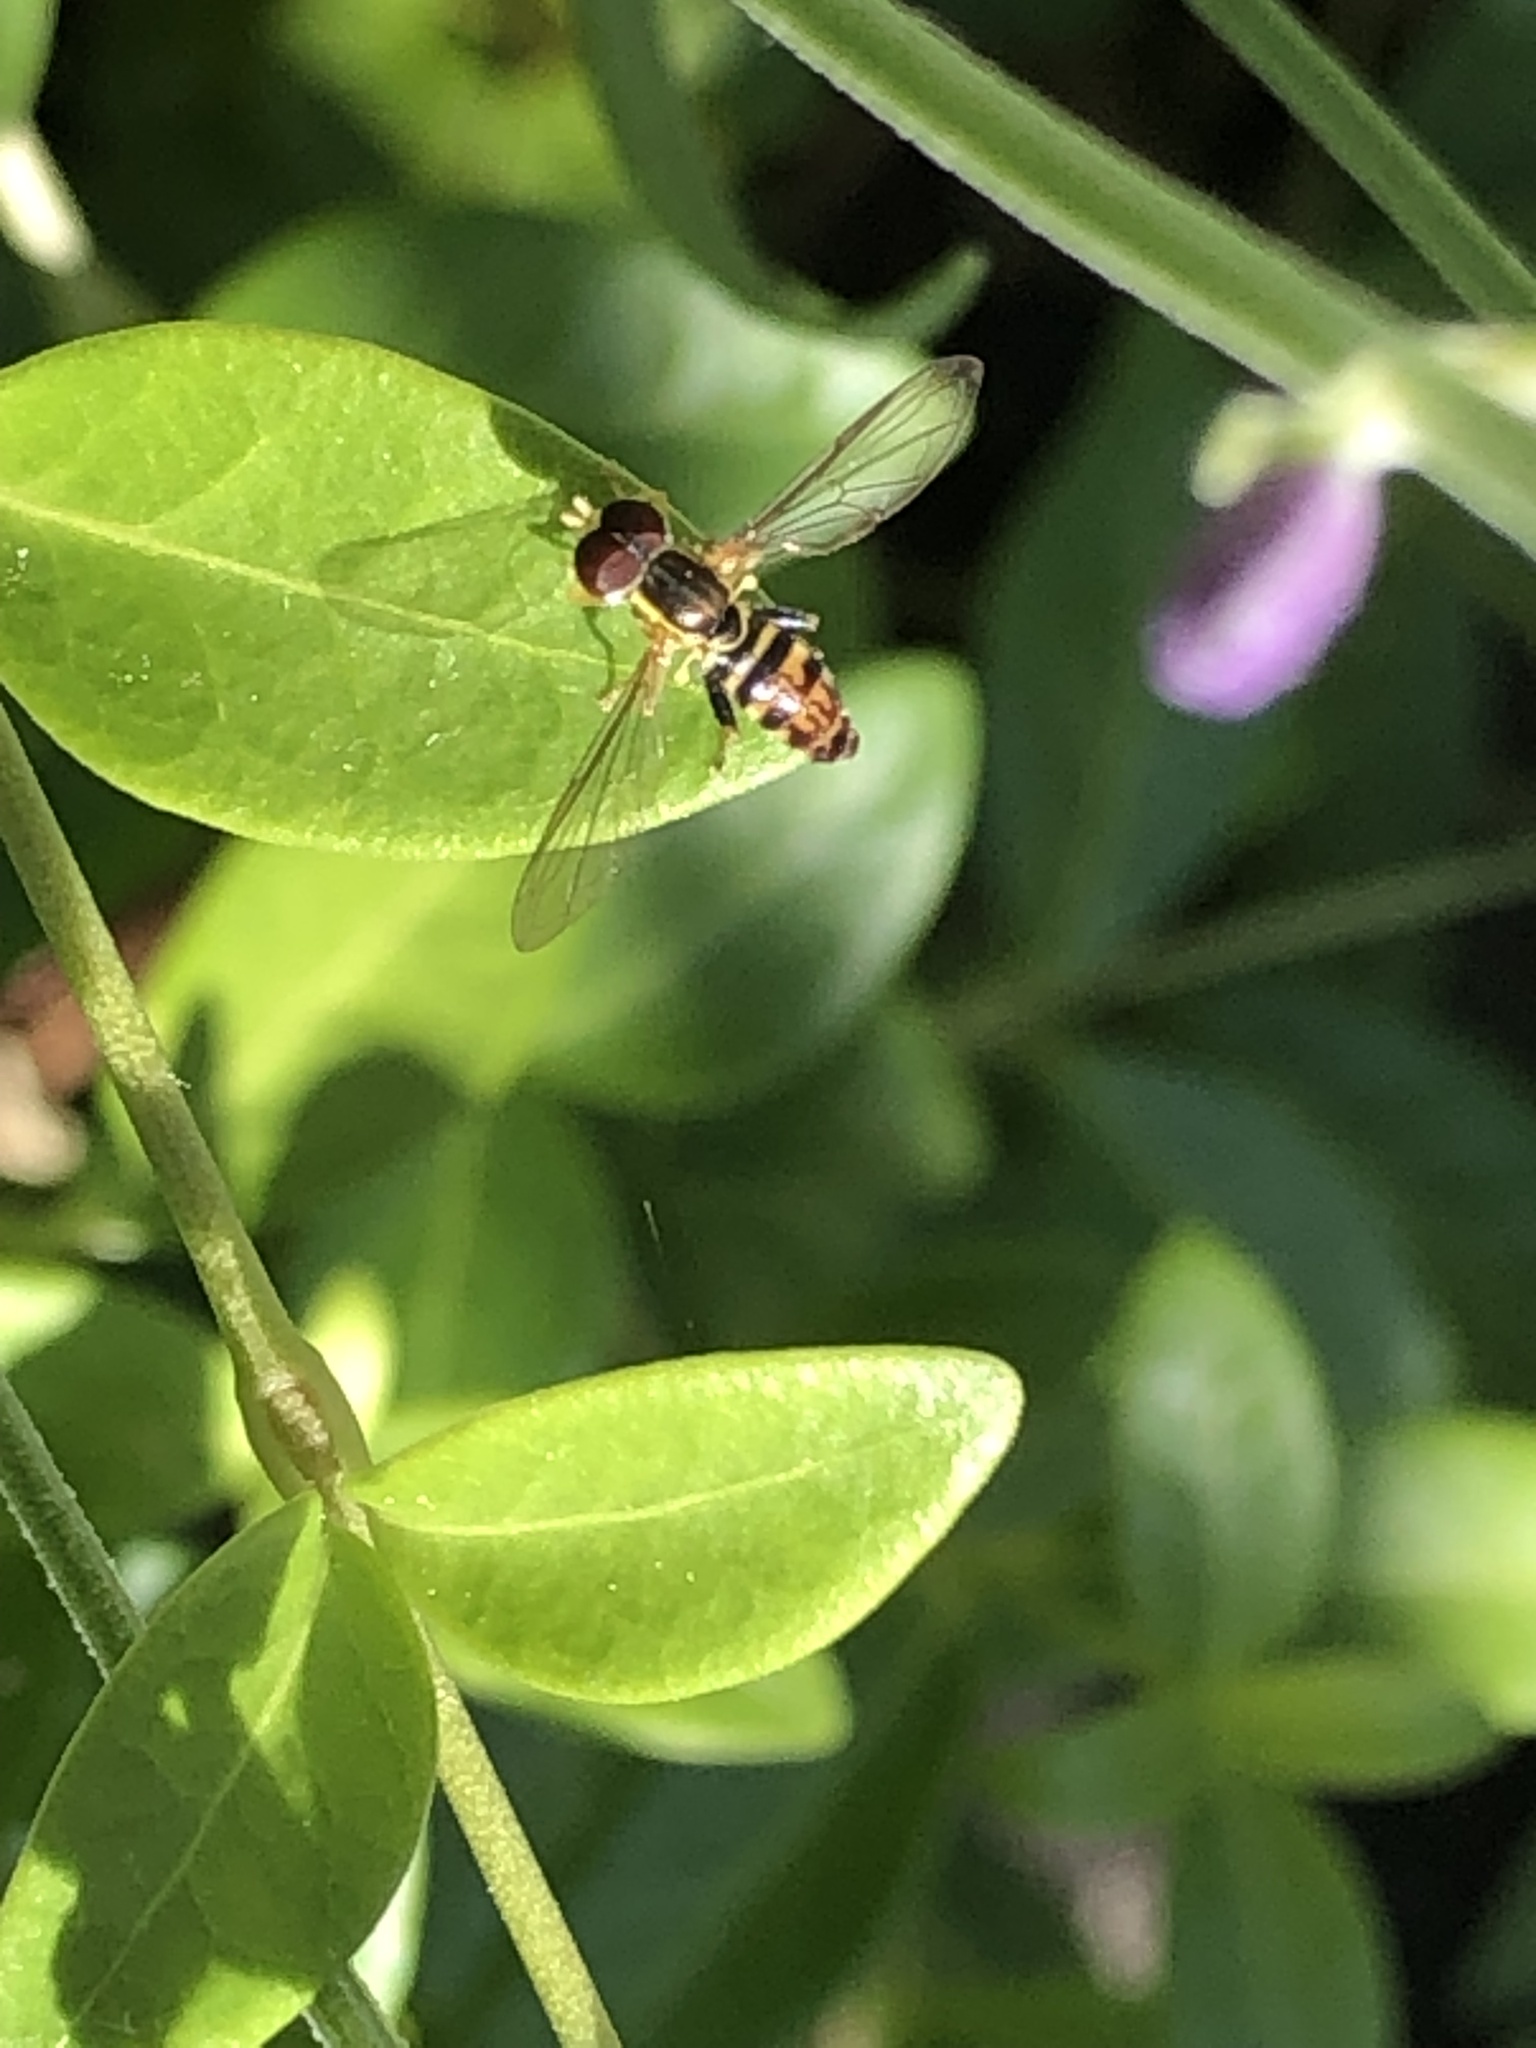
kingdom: Animalia
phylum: Arthropoda
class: Insecta
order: Diptera
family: Syrphidae
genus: Toxomerus
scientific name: Toxomerus geminatus
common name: Eastern calligrapher
